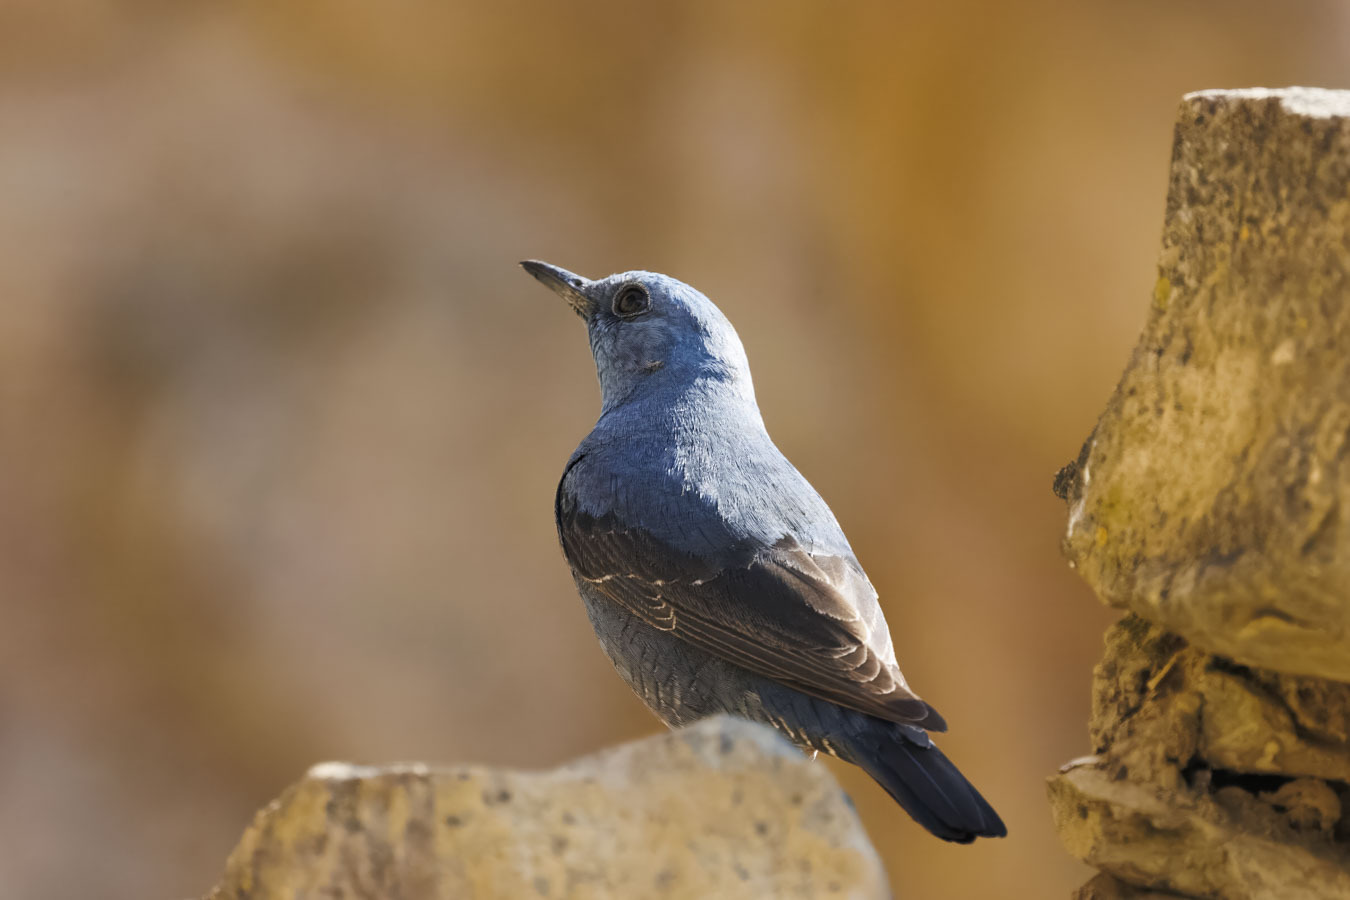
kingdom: Animalia
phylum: Chordata
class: Aves
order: Passeriformes
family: Muscicapidae
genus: Monticola
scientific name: Monticola solitarius
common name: Blue rock thrush
